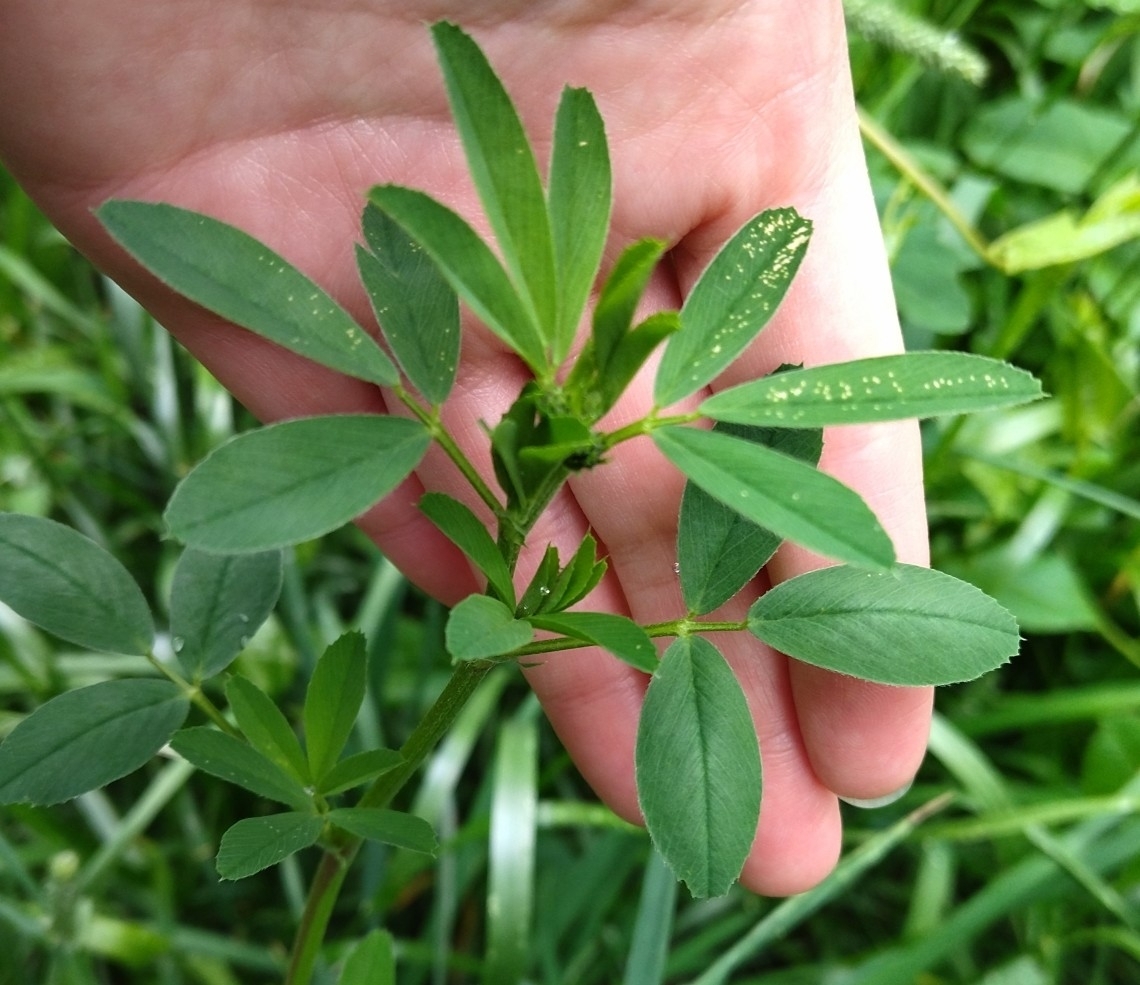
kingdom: Plantae
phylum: Tracheophyta
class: Magnoliopsida
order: Fabales
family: Fabaceae
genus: Medicago
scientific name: Medicago
